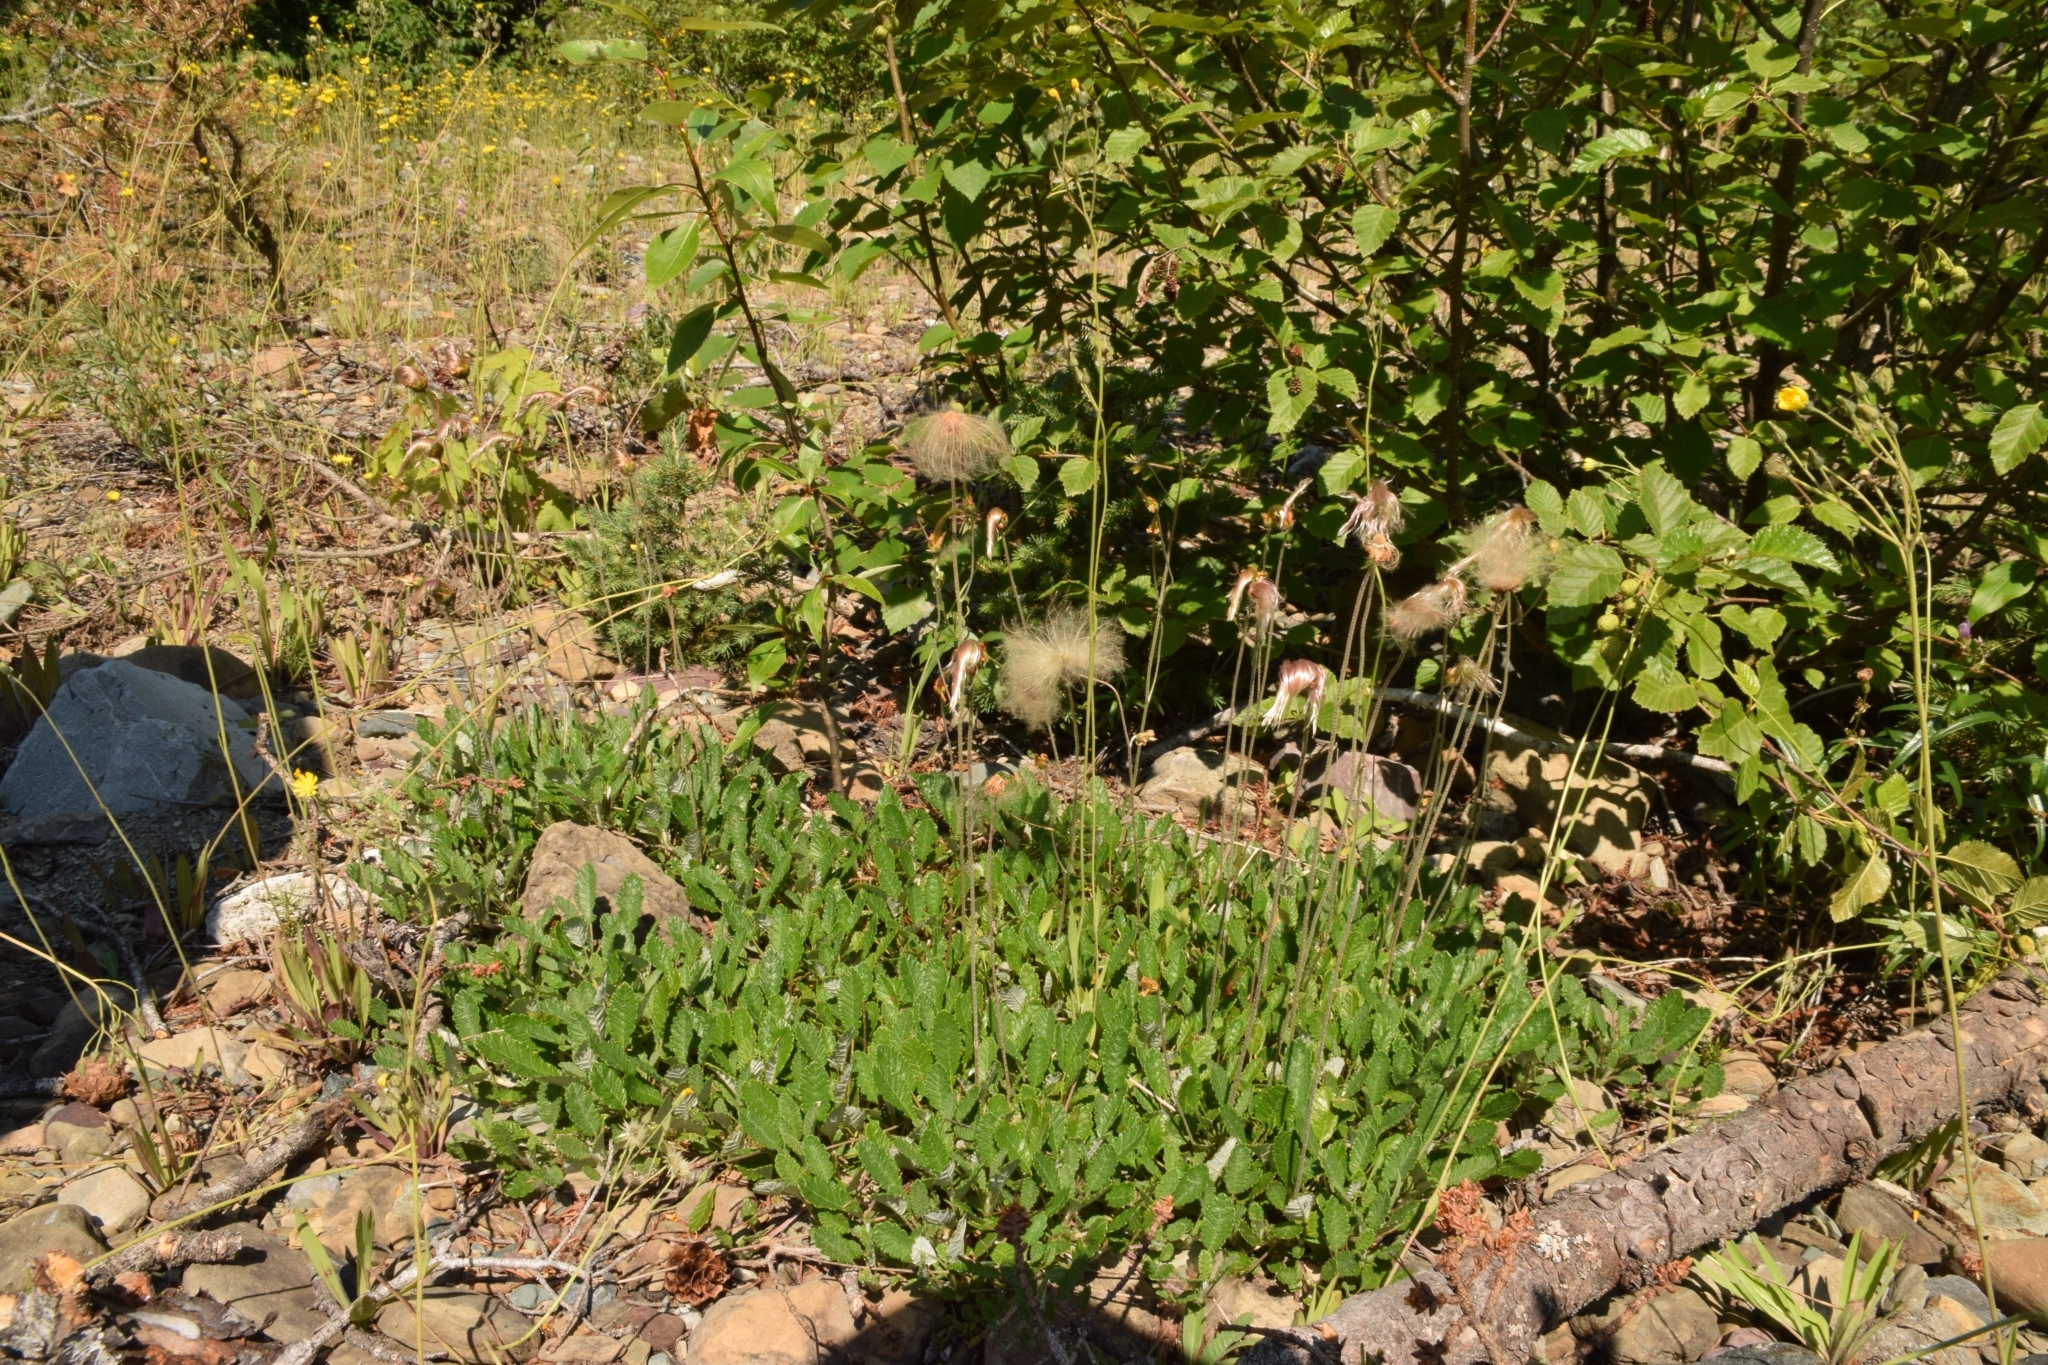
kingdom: Plantae
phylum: Tracheophyta
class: Magnoliopsida
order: Rosales
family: Rosaceae
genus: Dryas
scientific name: Dryas drummondii
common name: Drummond's dryad
